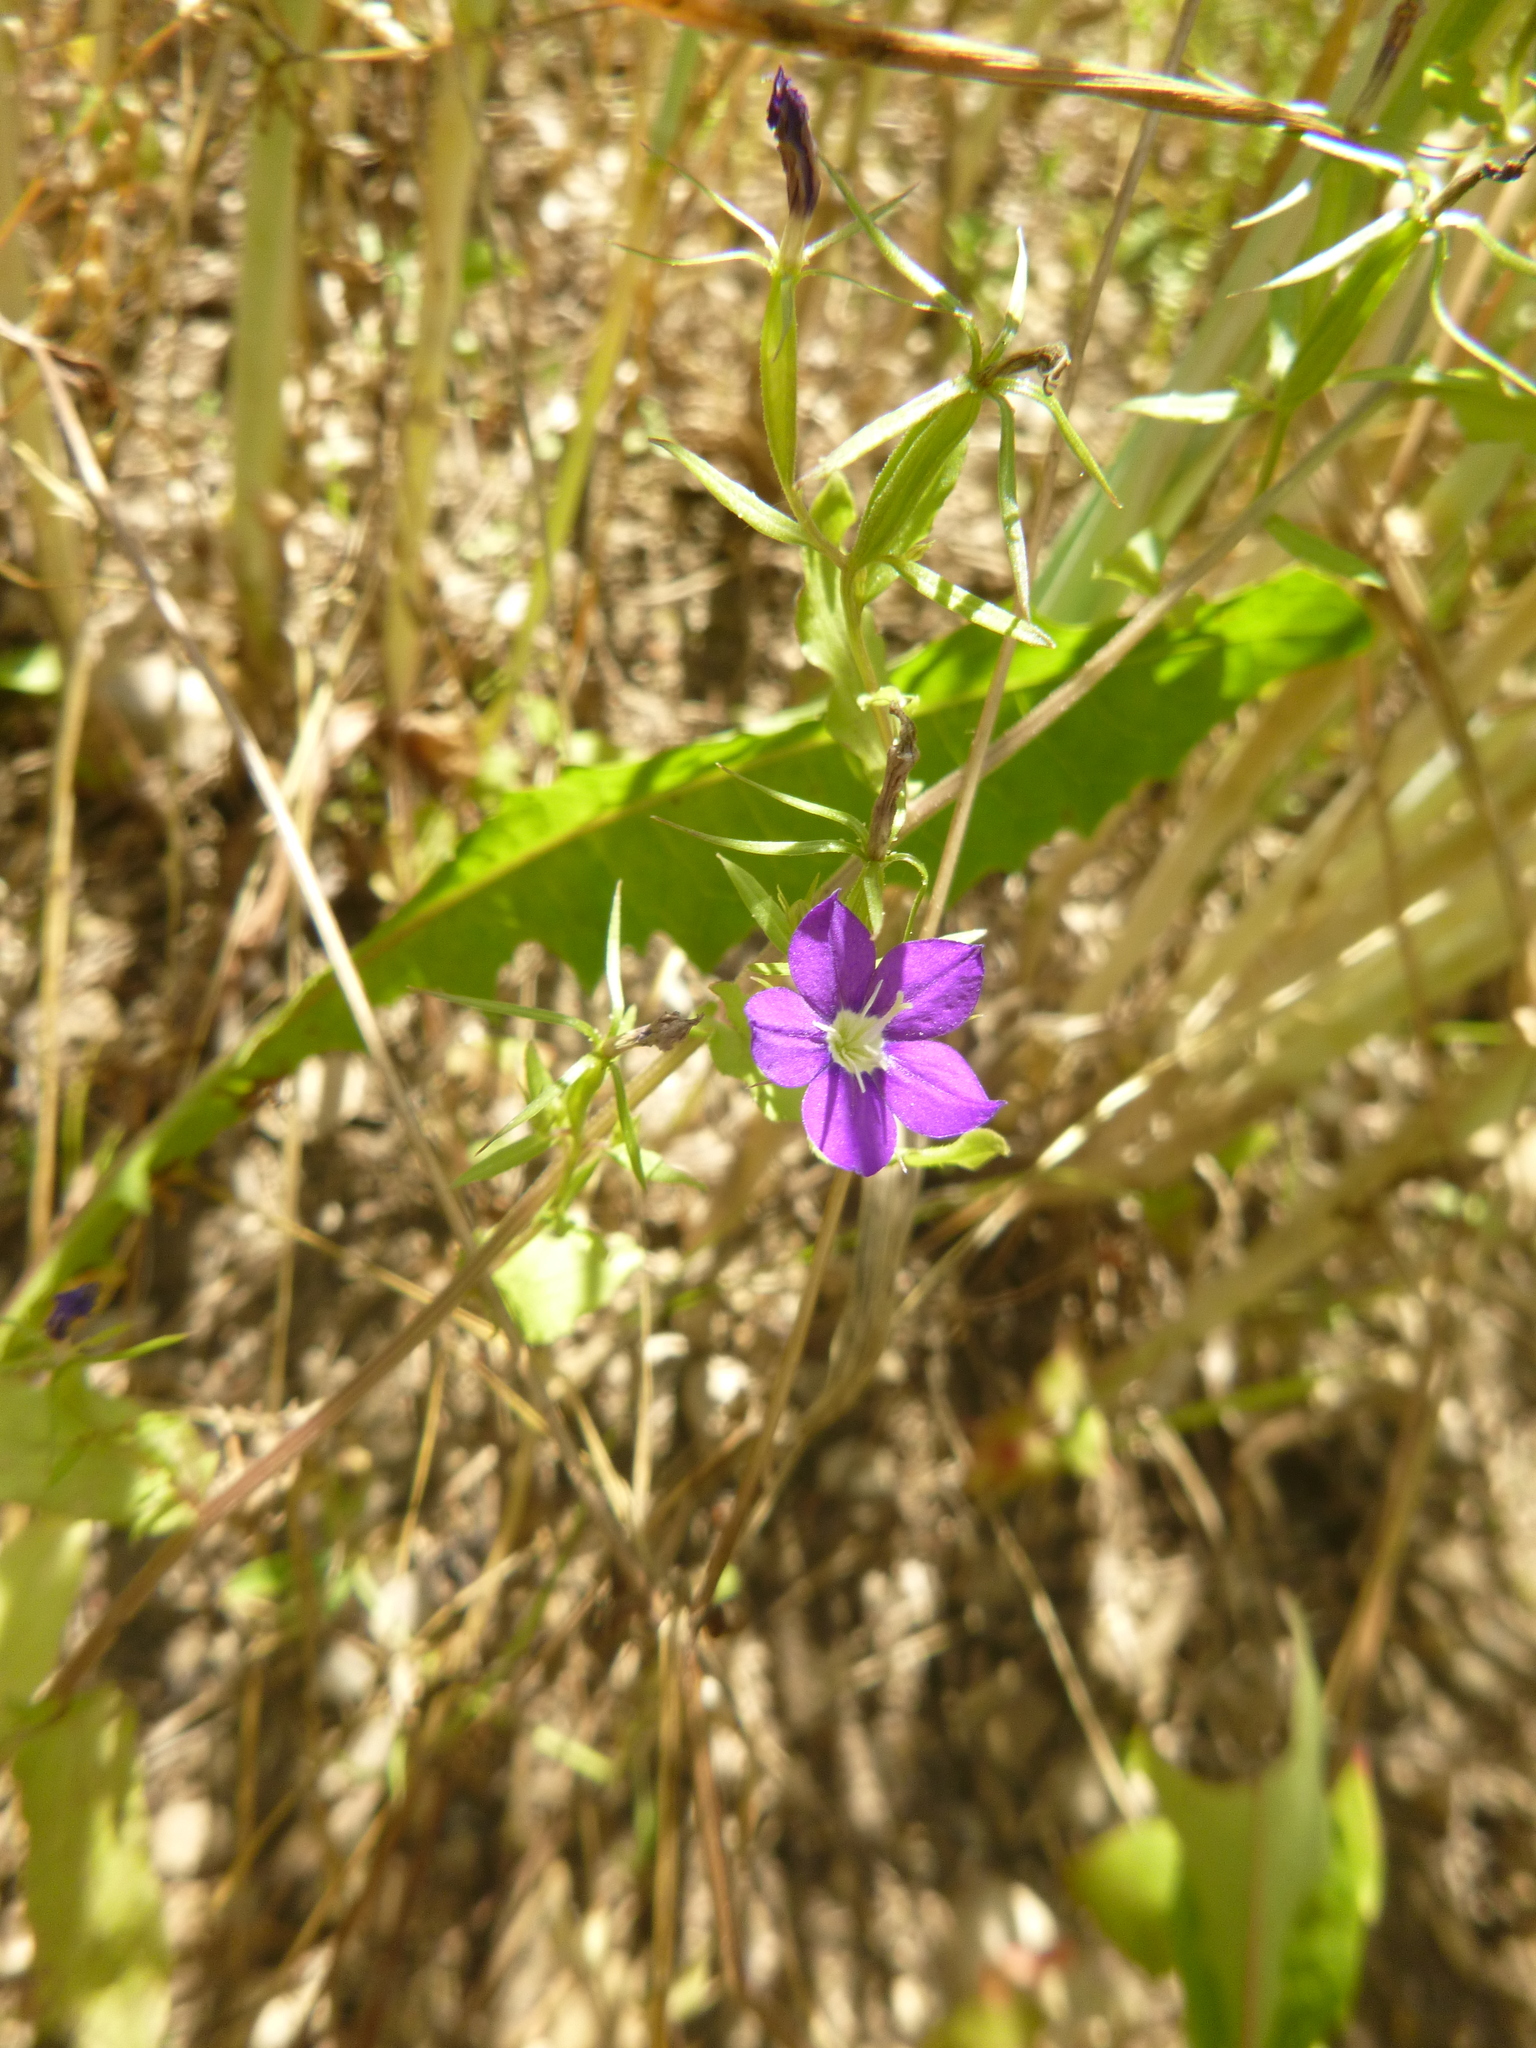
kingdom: Plantae
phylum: Tracheophyta
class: Magnoliopsida
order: Asterales
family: Campanulaceae
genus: Legousia
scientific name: Legousia speculum-veneris
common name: Large venus's-looking-glass
